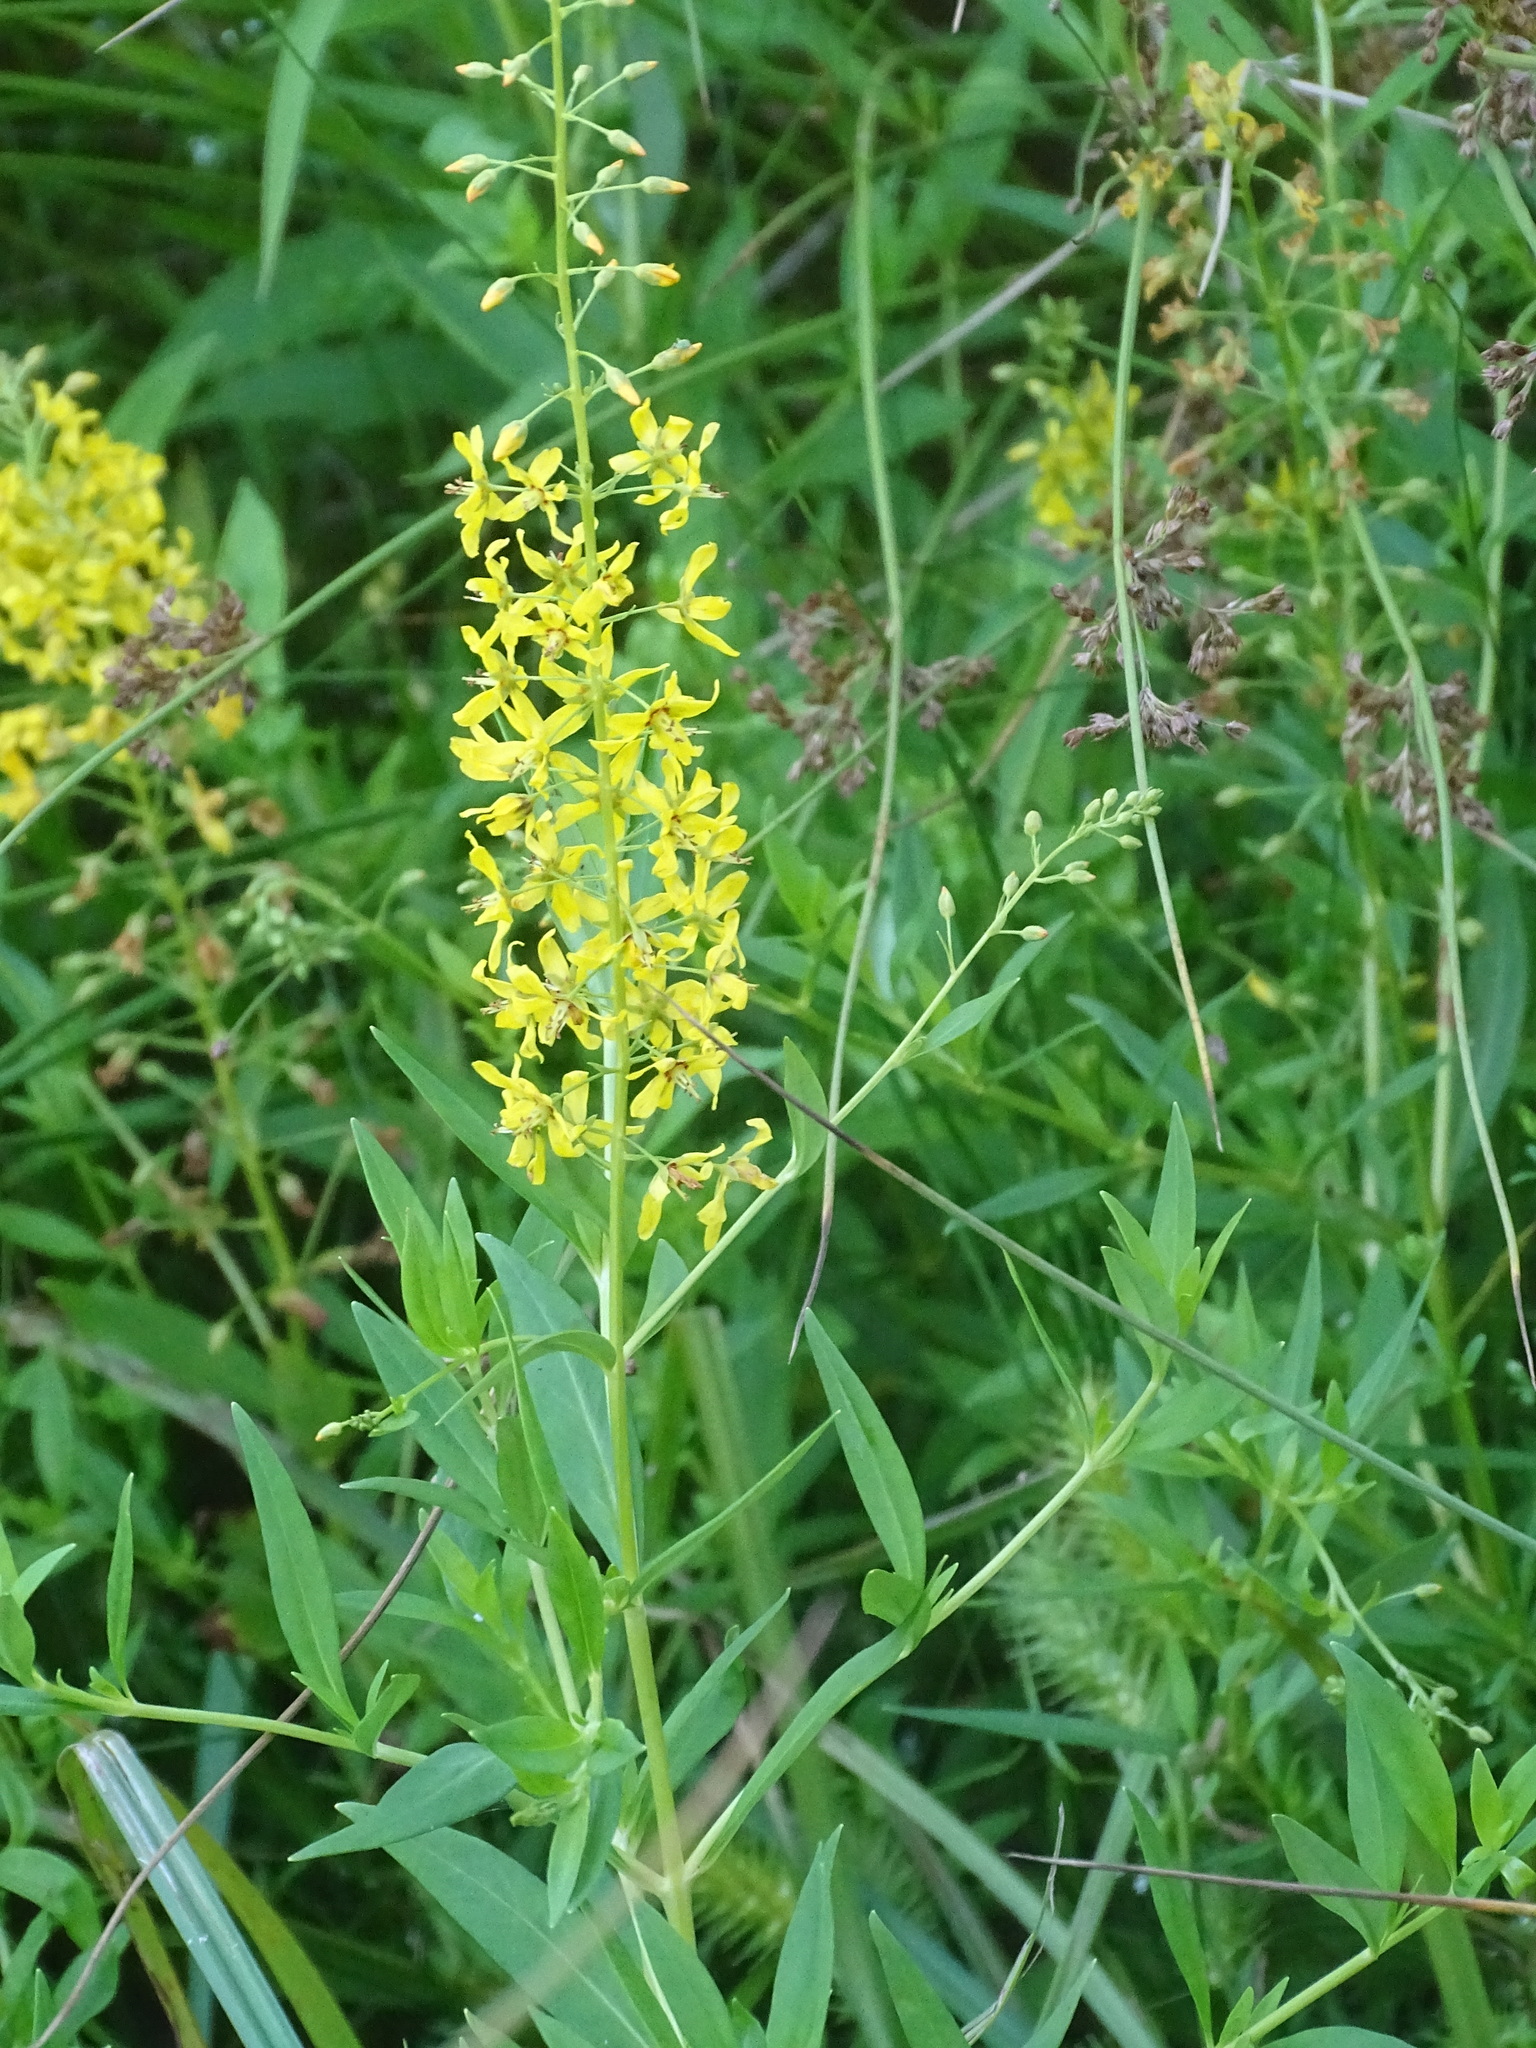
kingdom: Plantae
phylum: Tracheophyta
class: Magnoliopsida
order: Ericales
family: Primulaceae
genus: Lysimachia
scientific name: Lysimachia terrestris
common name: Lake loosestrife
